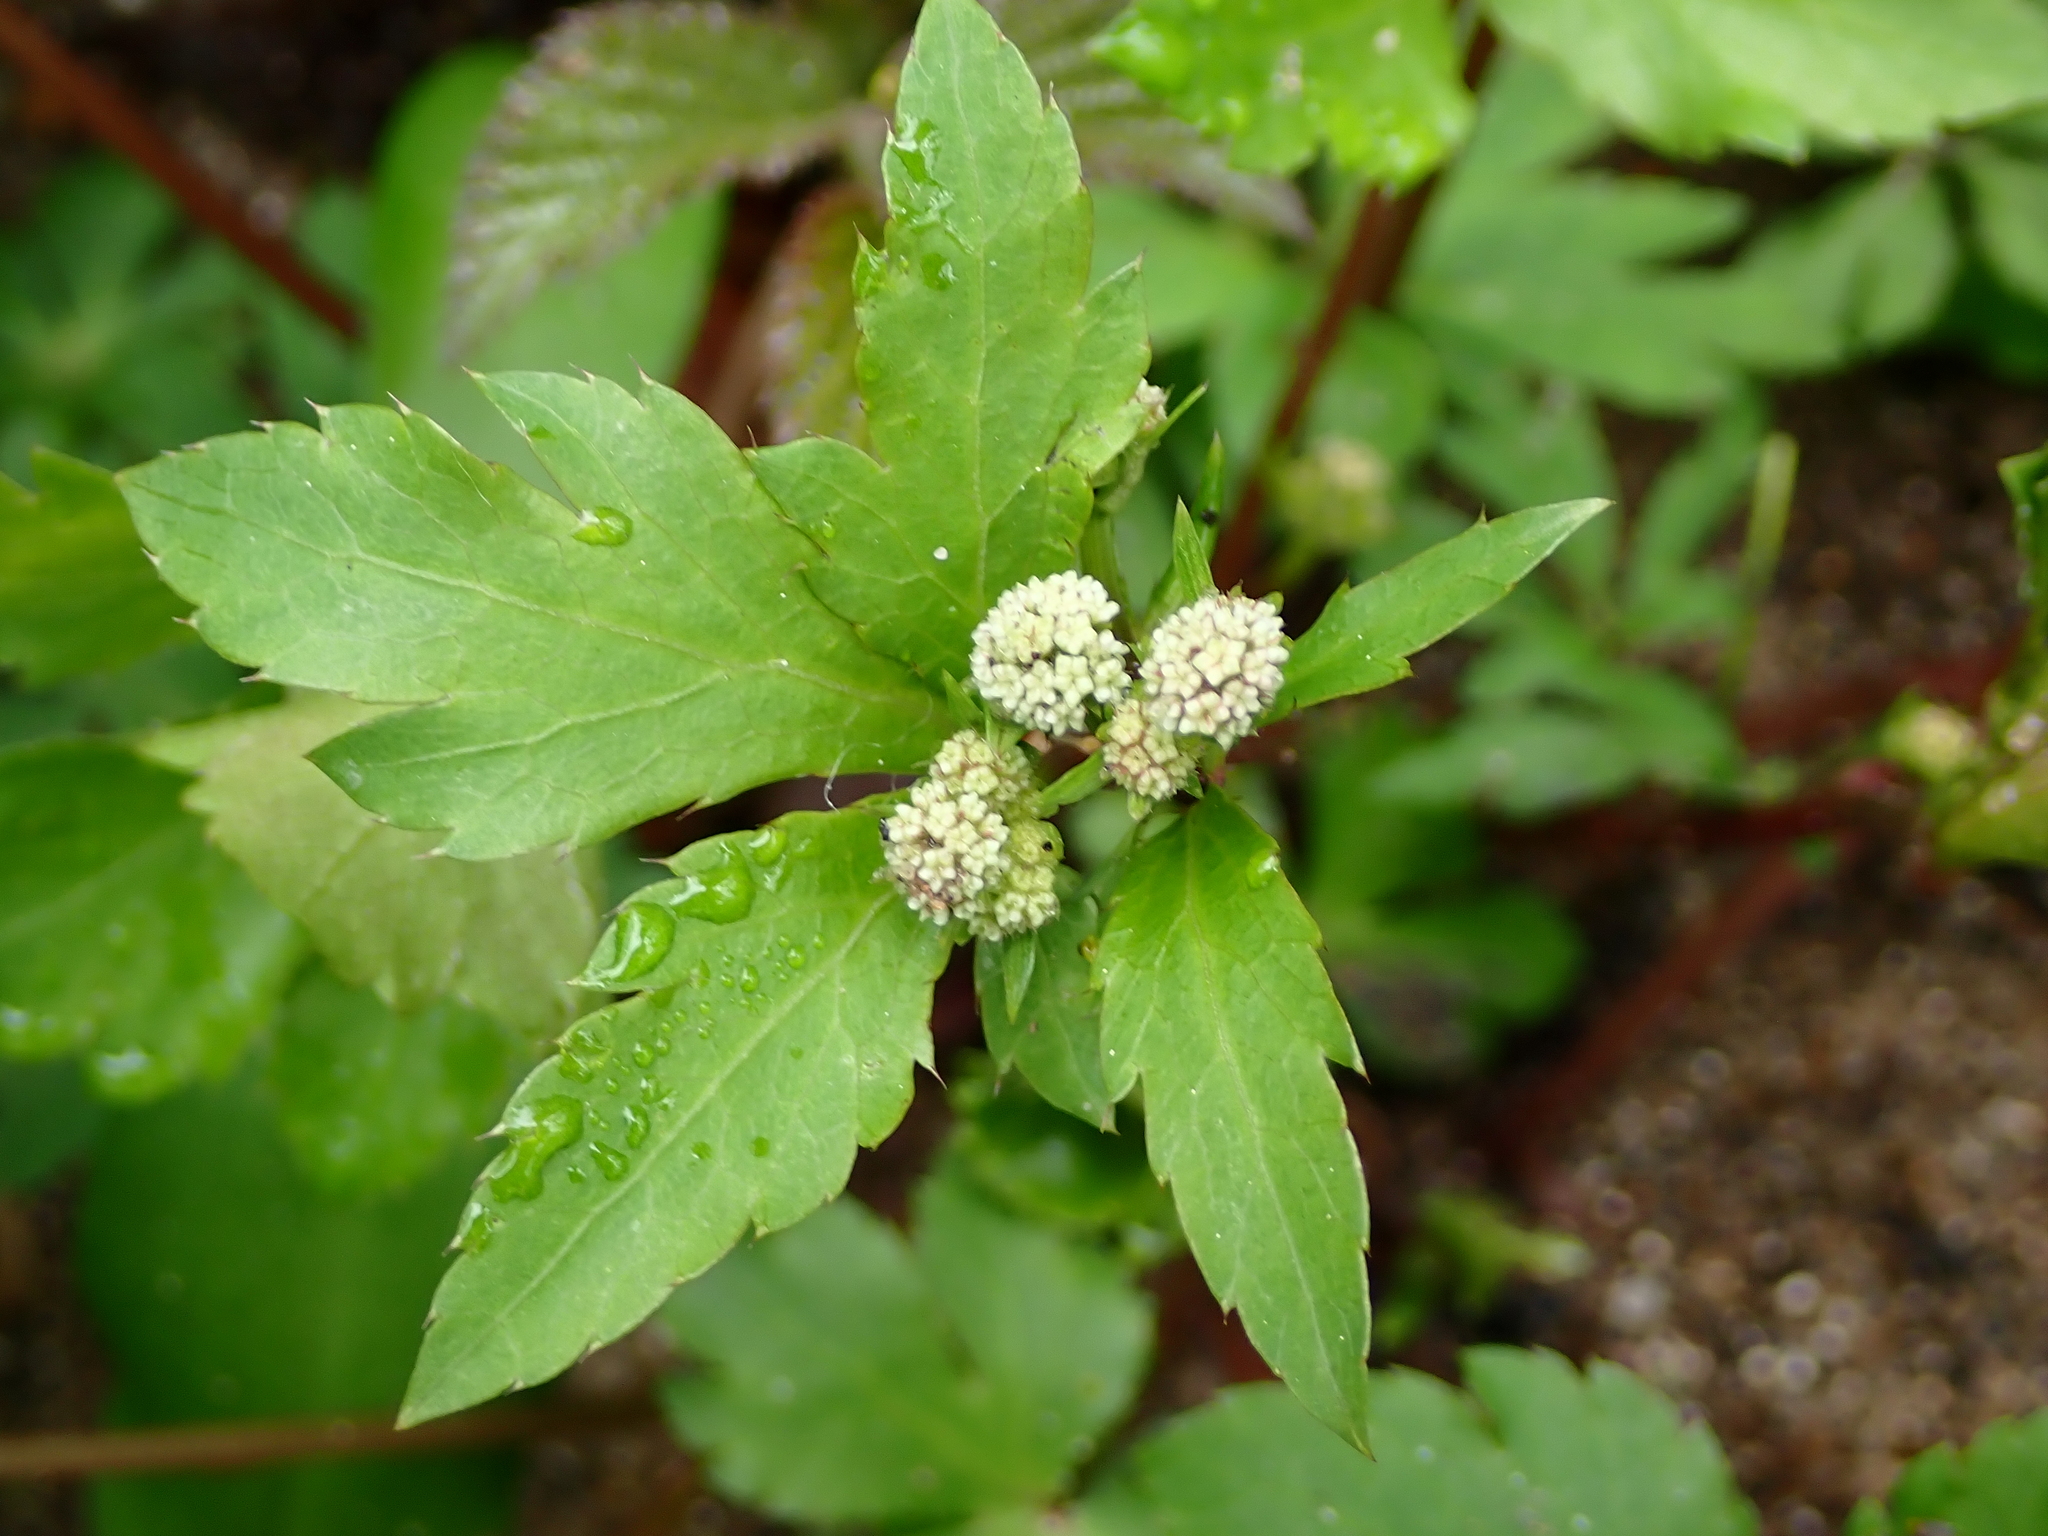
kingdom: Plantae
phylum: Tracheophyta
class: Magnoliopsida
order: Apiales
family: Apiaceae
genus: Sanicula
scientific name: Sanicula europaea
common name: Sanicle
